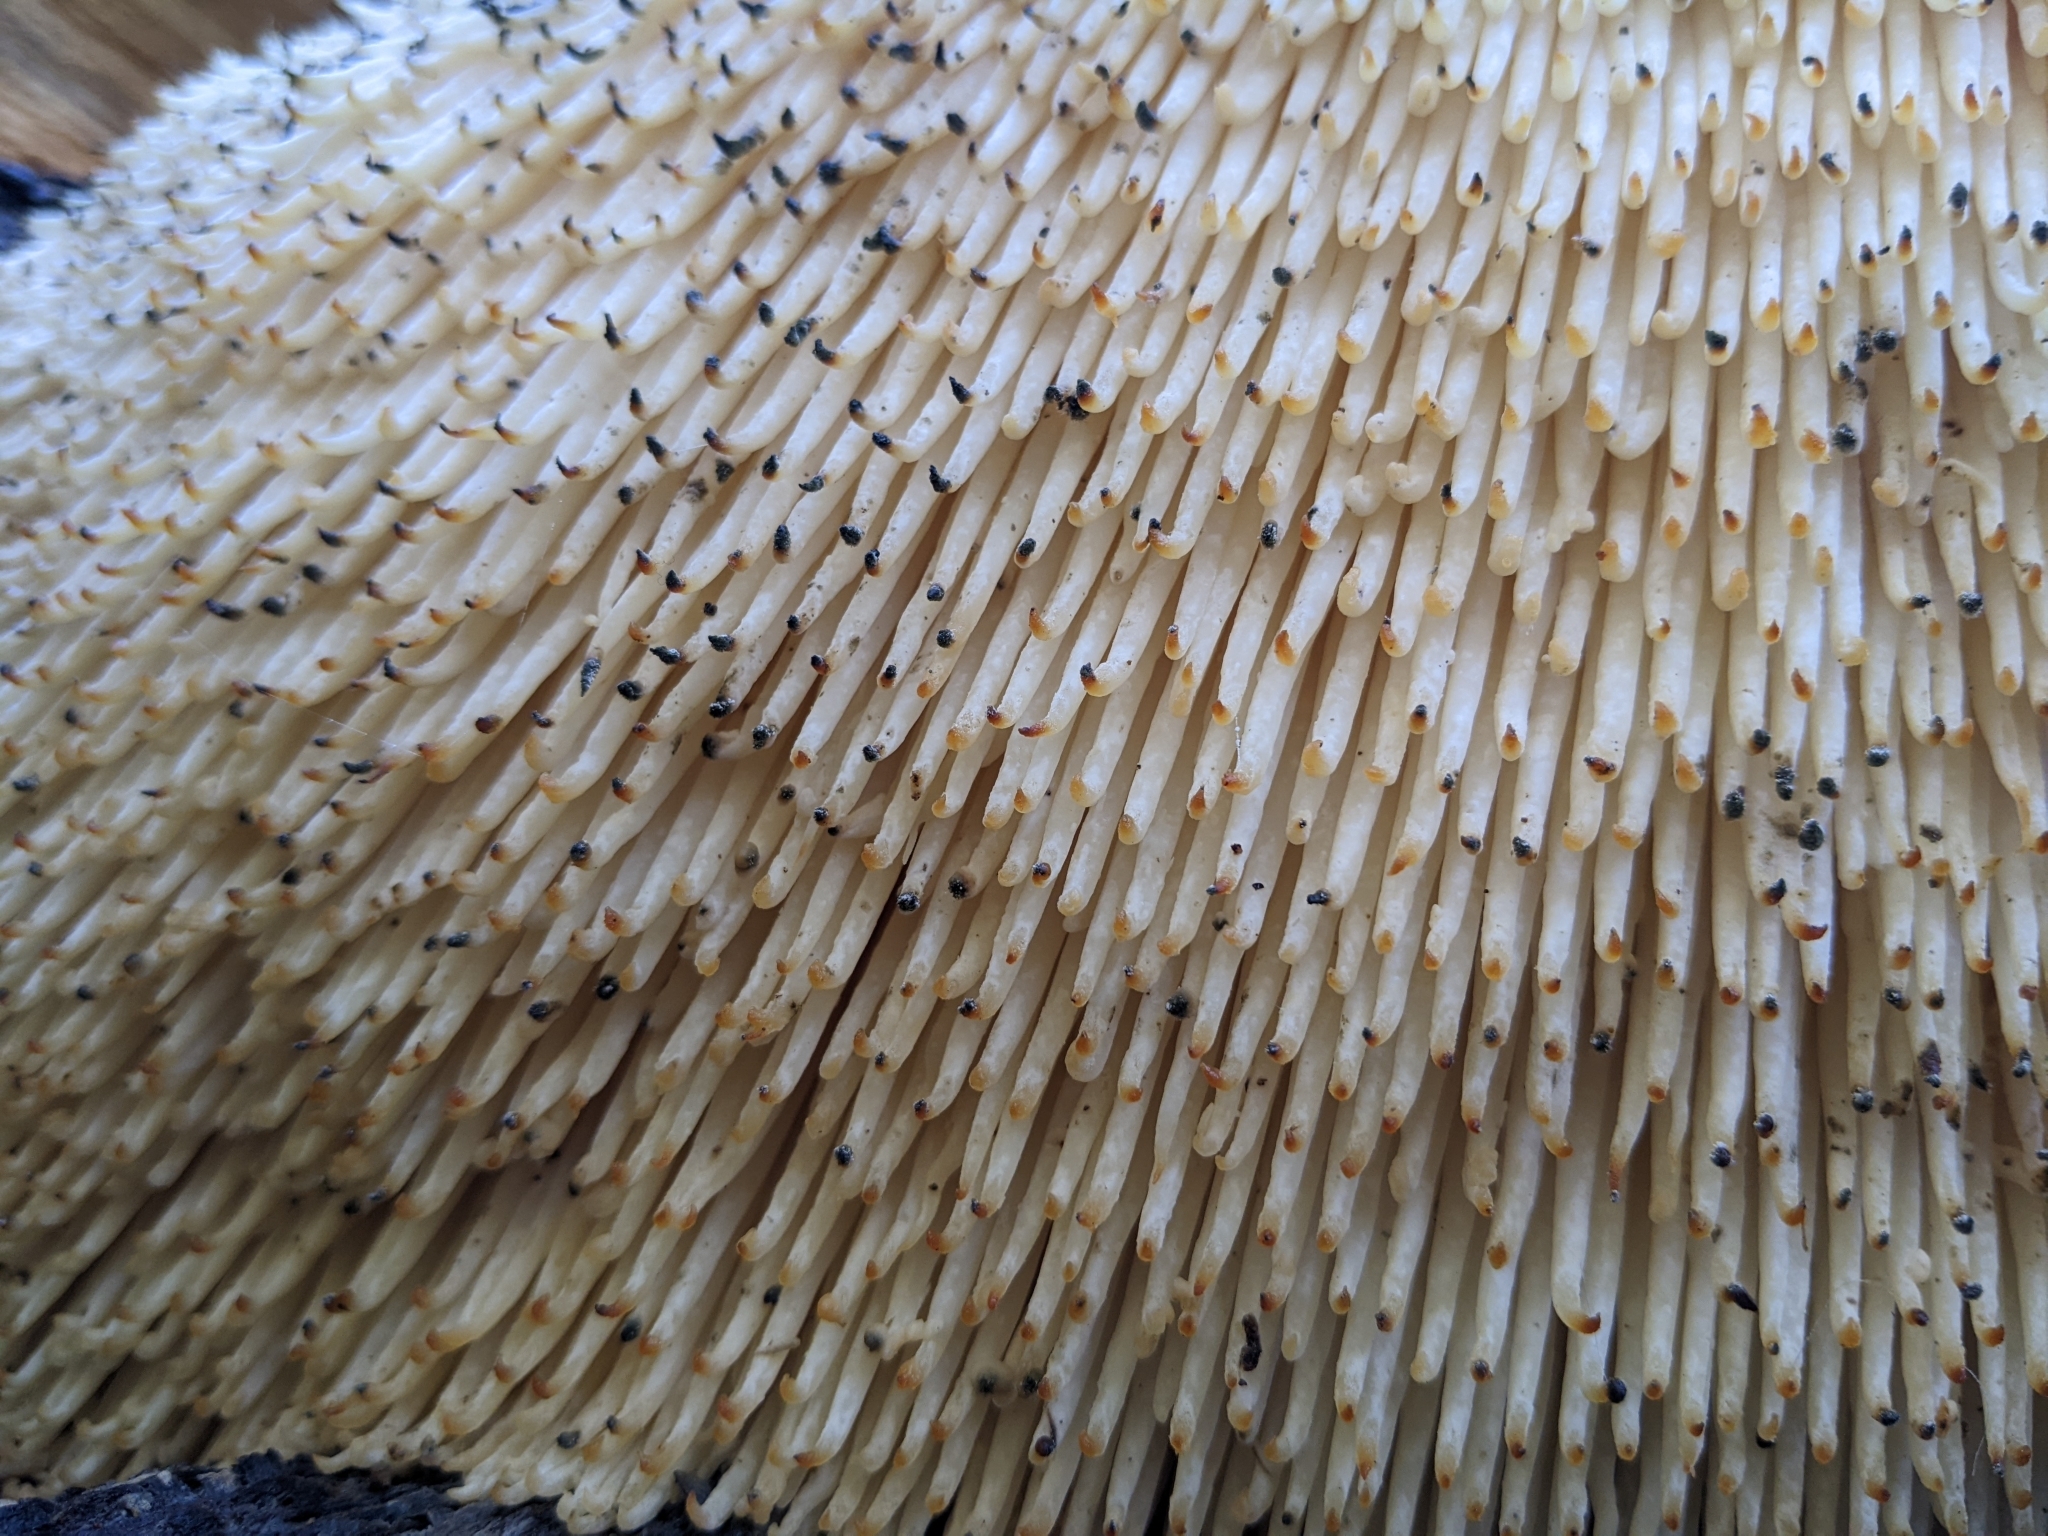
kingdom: Fungi
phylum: Basidiomycota
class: Agaricomycetes
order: Russulales
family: Hericiaceae
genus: Hericium
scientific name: Hericium erinaceus
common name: Bearded tooth
